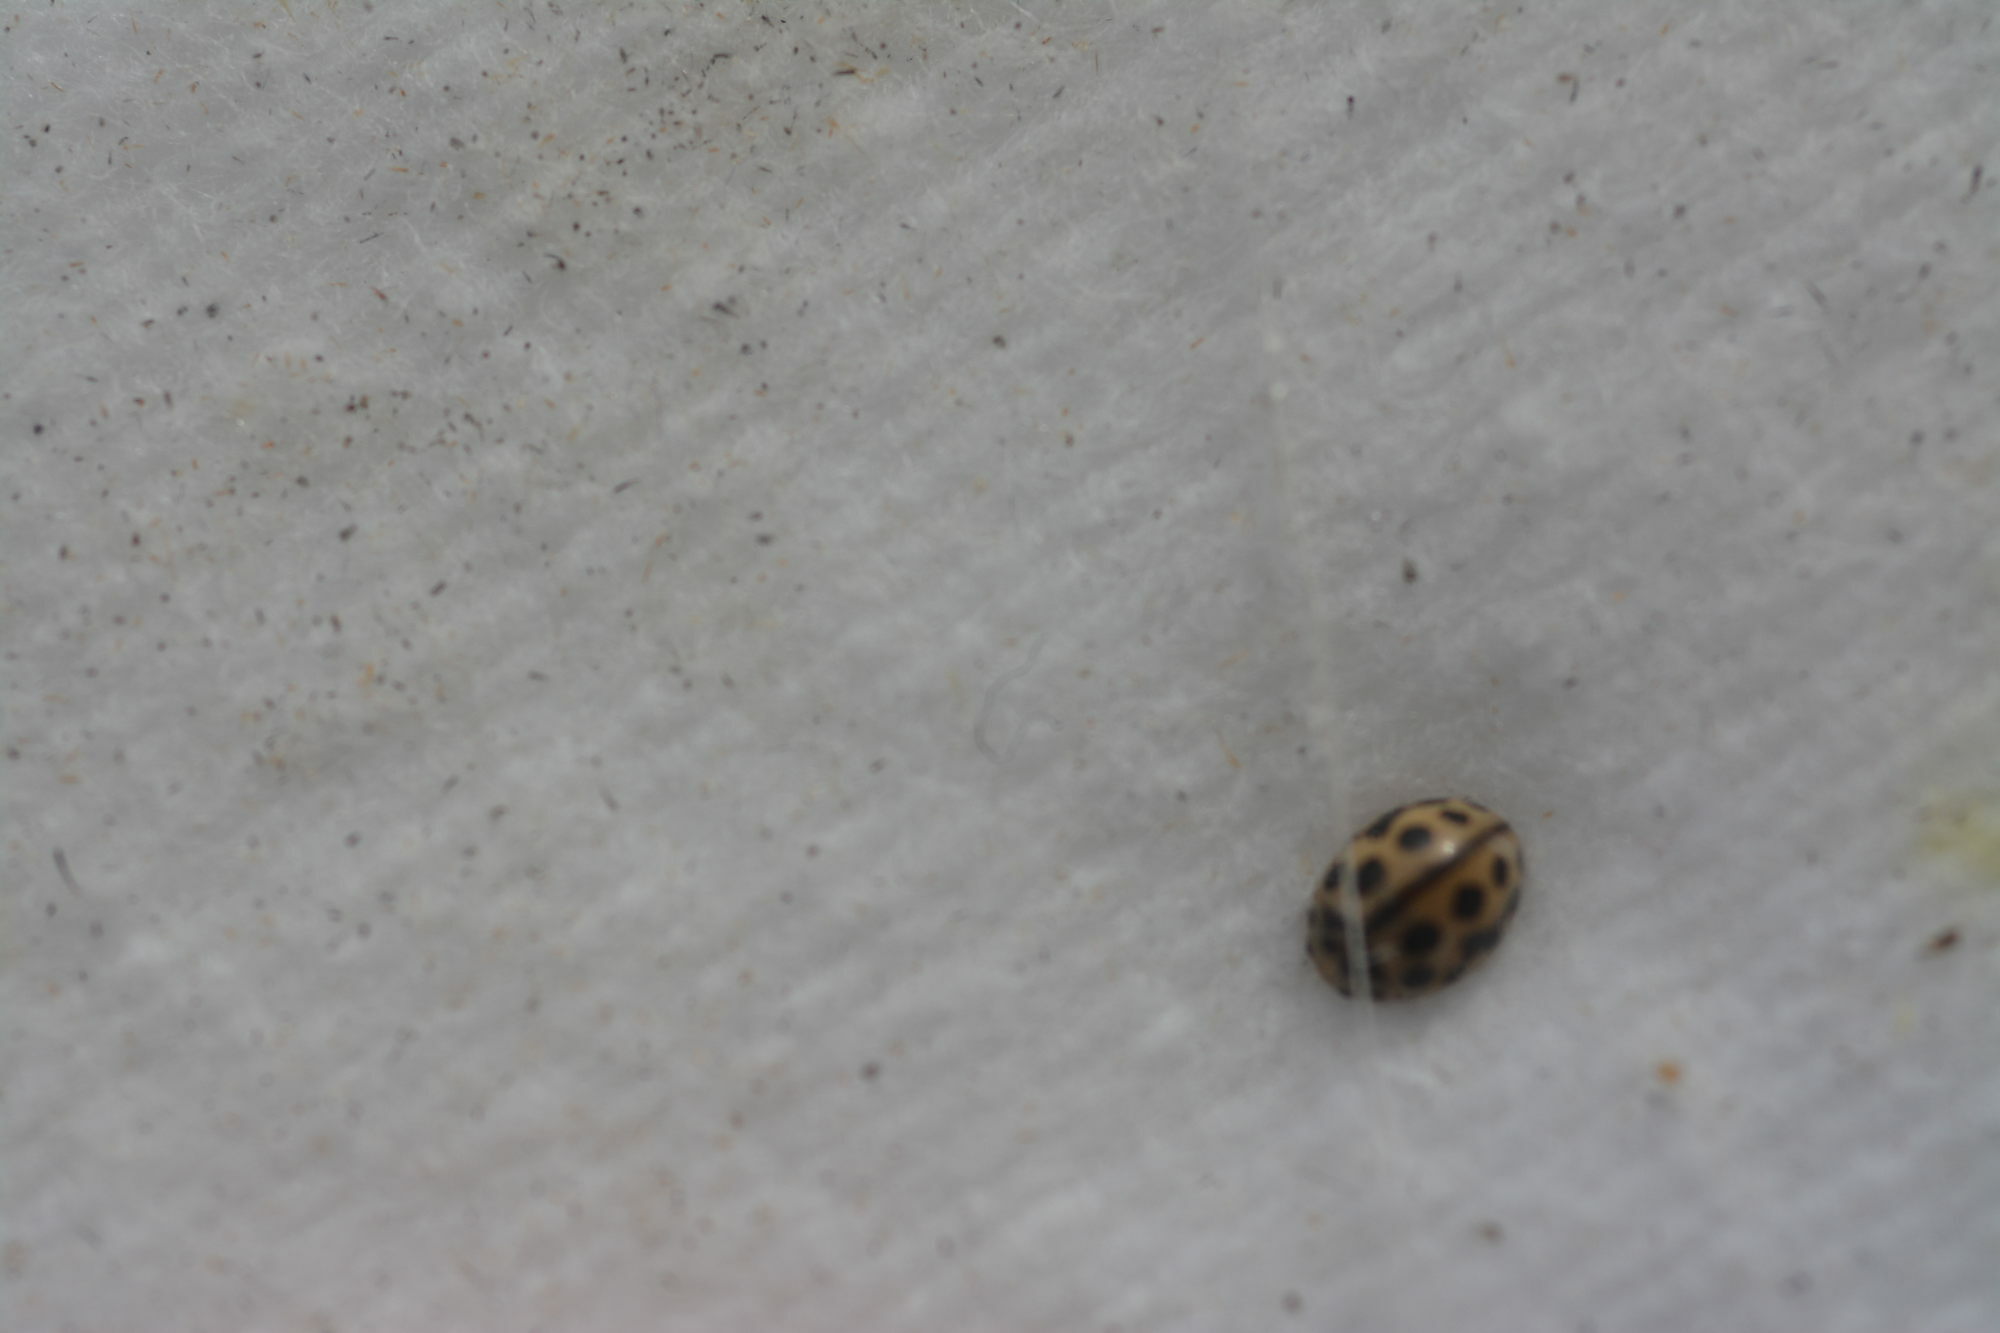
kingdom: Animalia
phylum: Arthropoda
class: Insecta
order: Coleoptera
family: Coccinellidae
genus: Tytthaspis
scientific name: Tytthaspis sedecimpunctata
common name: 16-spot ladybird
